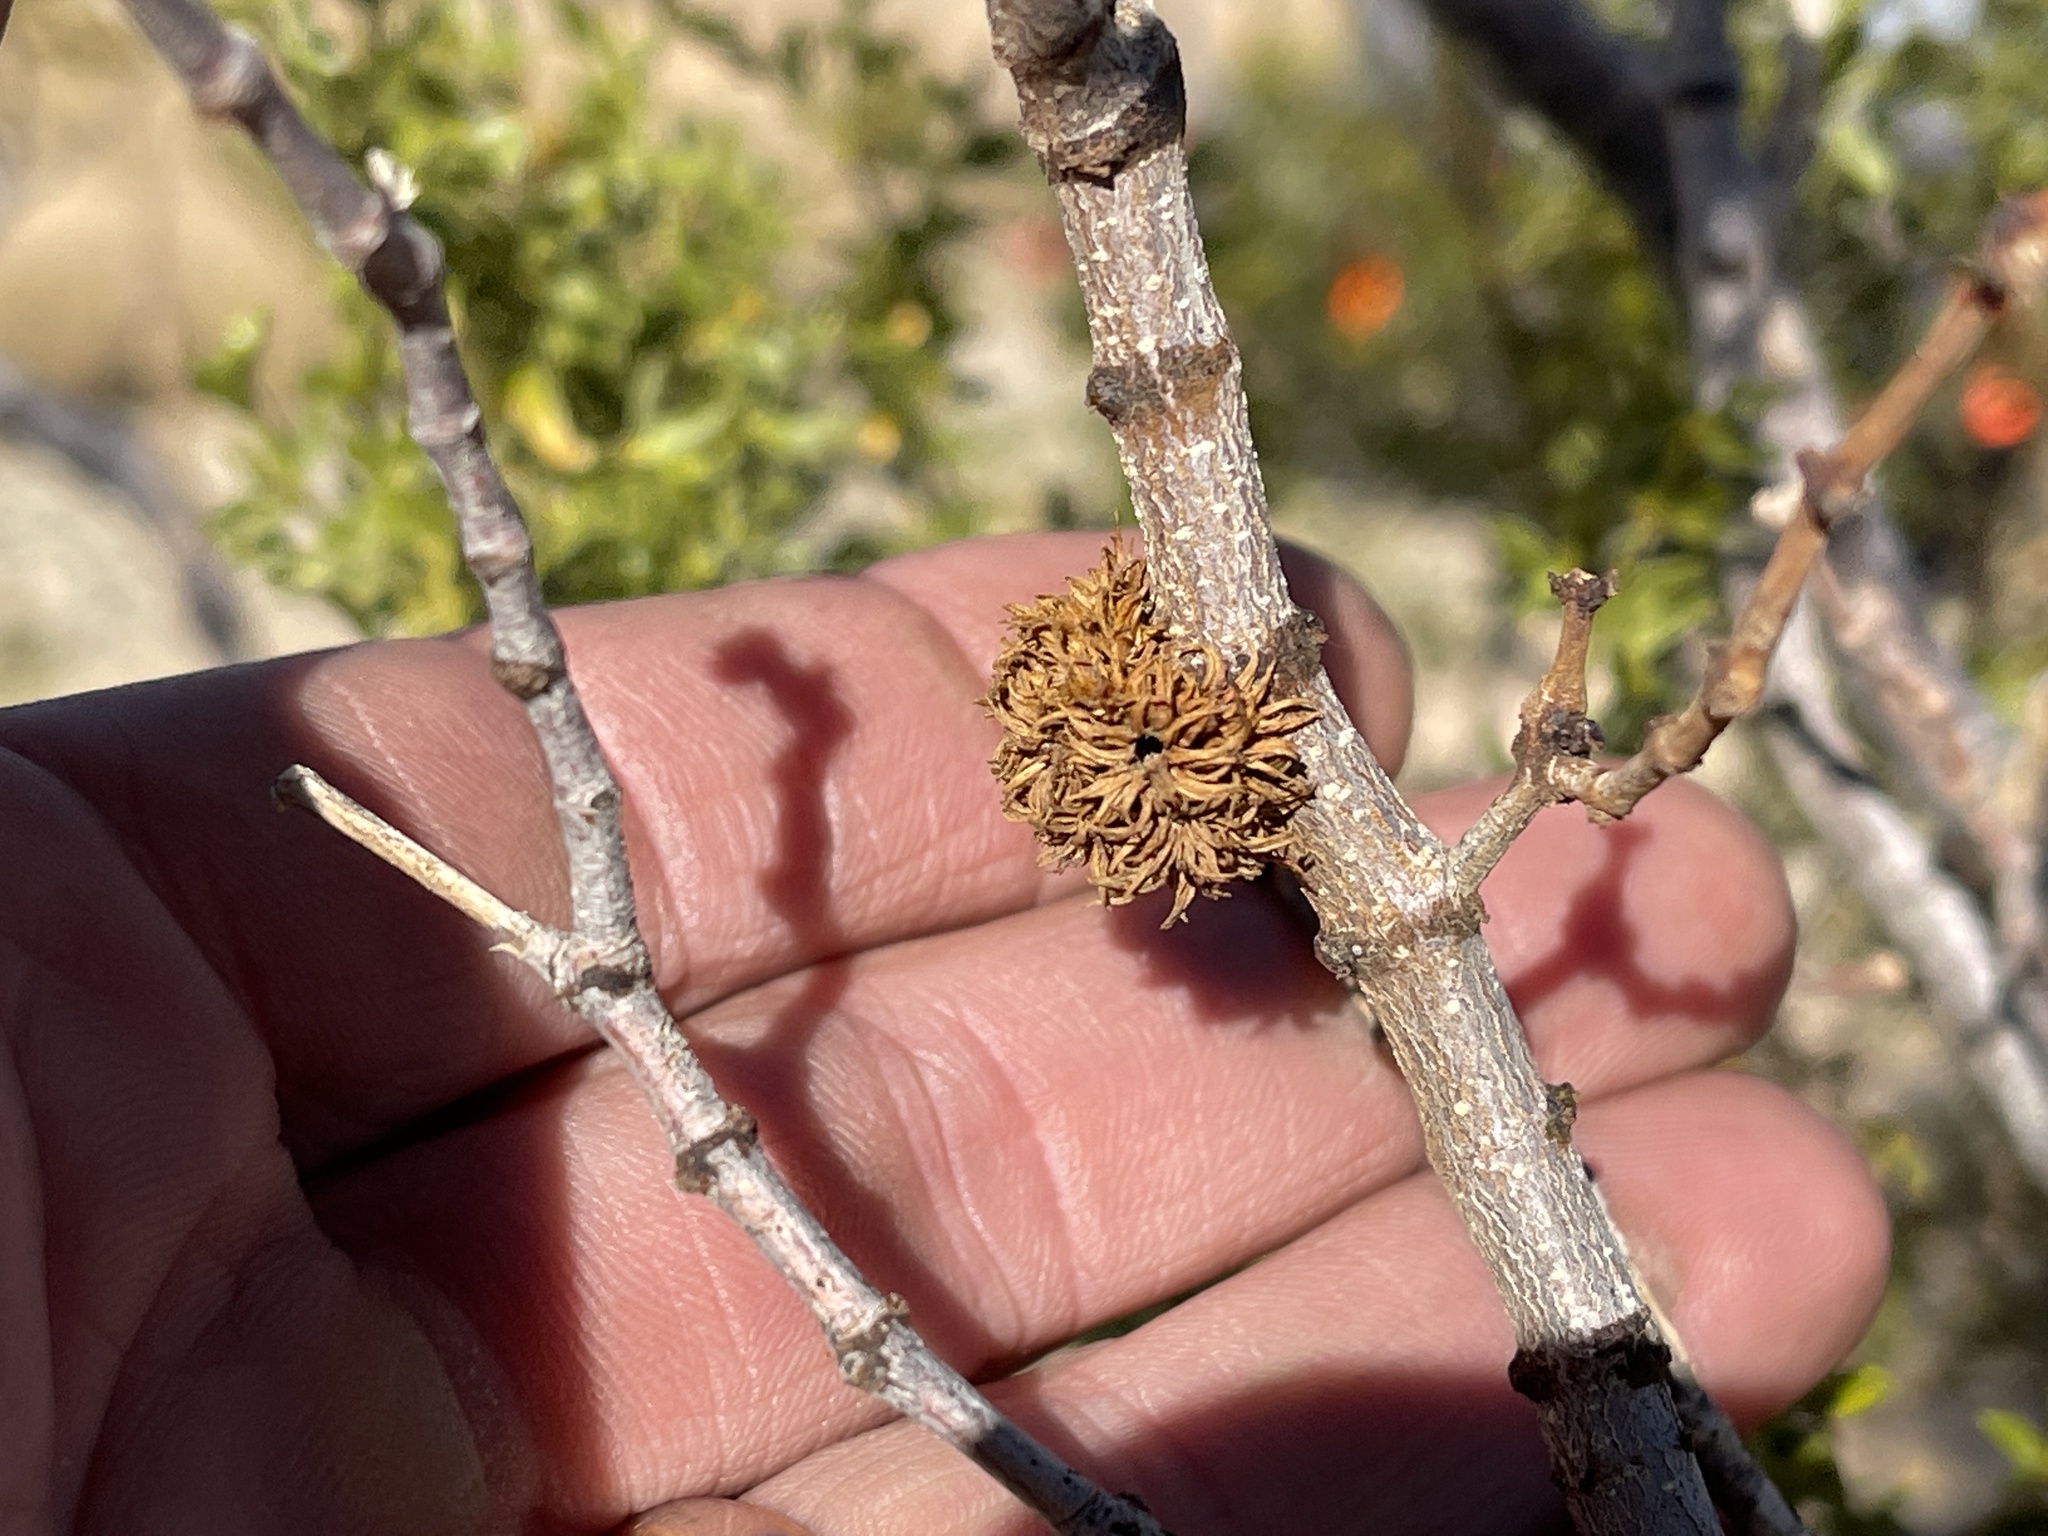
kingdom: Animalia
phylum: Arthropoda
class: Insecta
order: Diptera
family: Cecidomyiidae
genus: Asphondylia
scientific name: Asphondylia auripila
